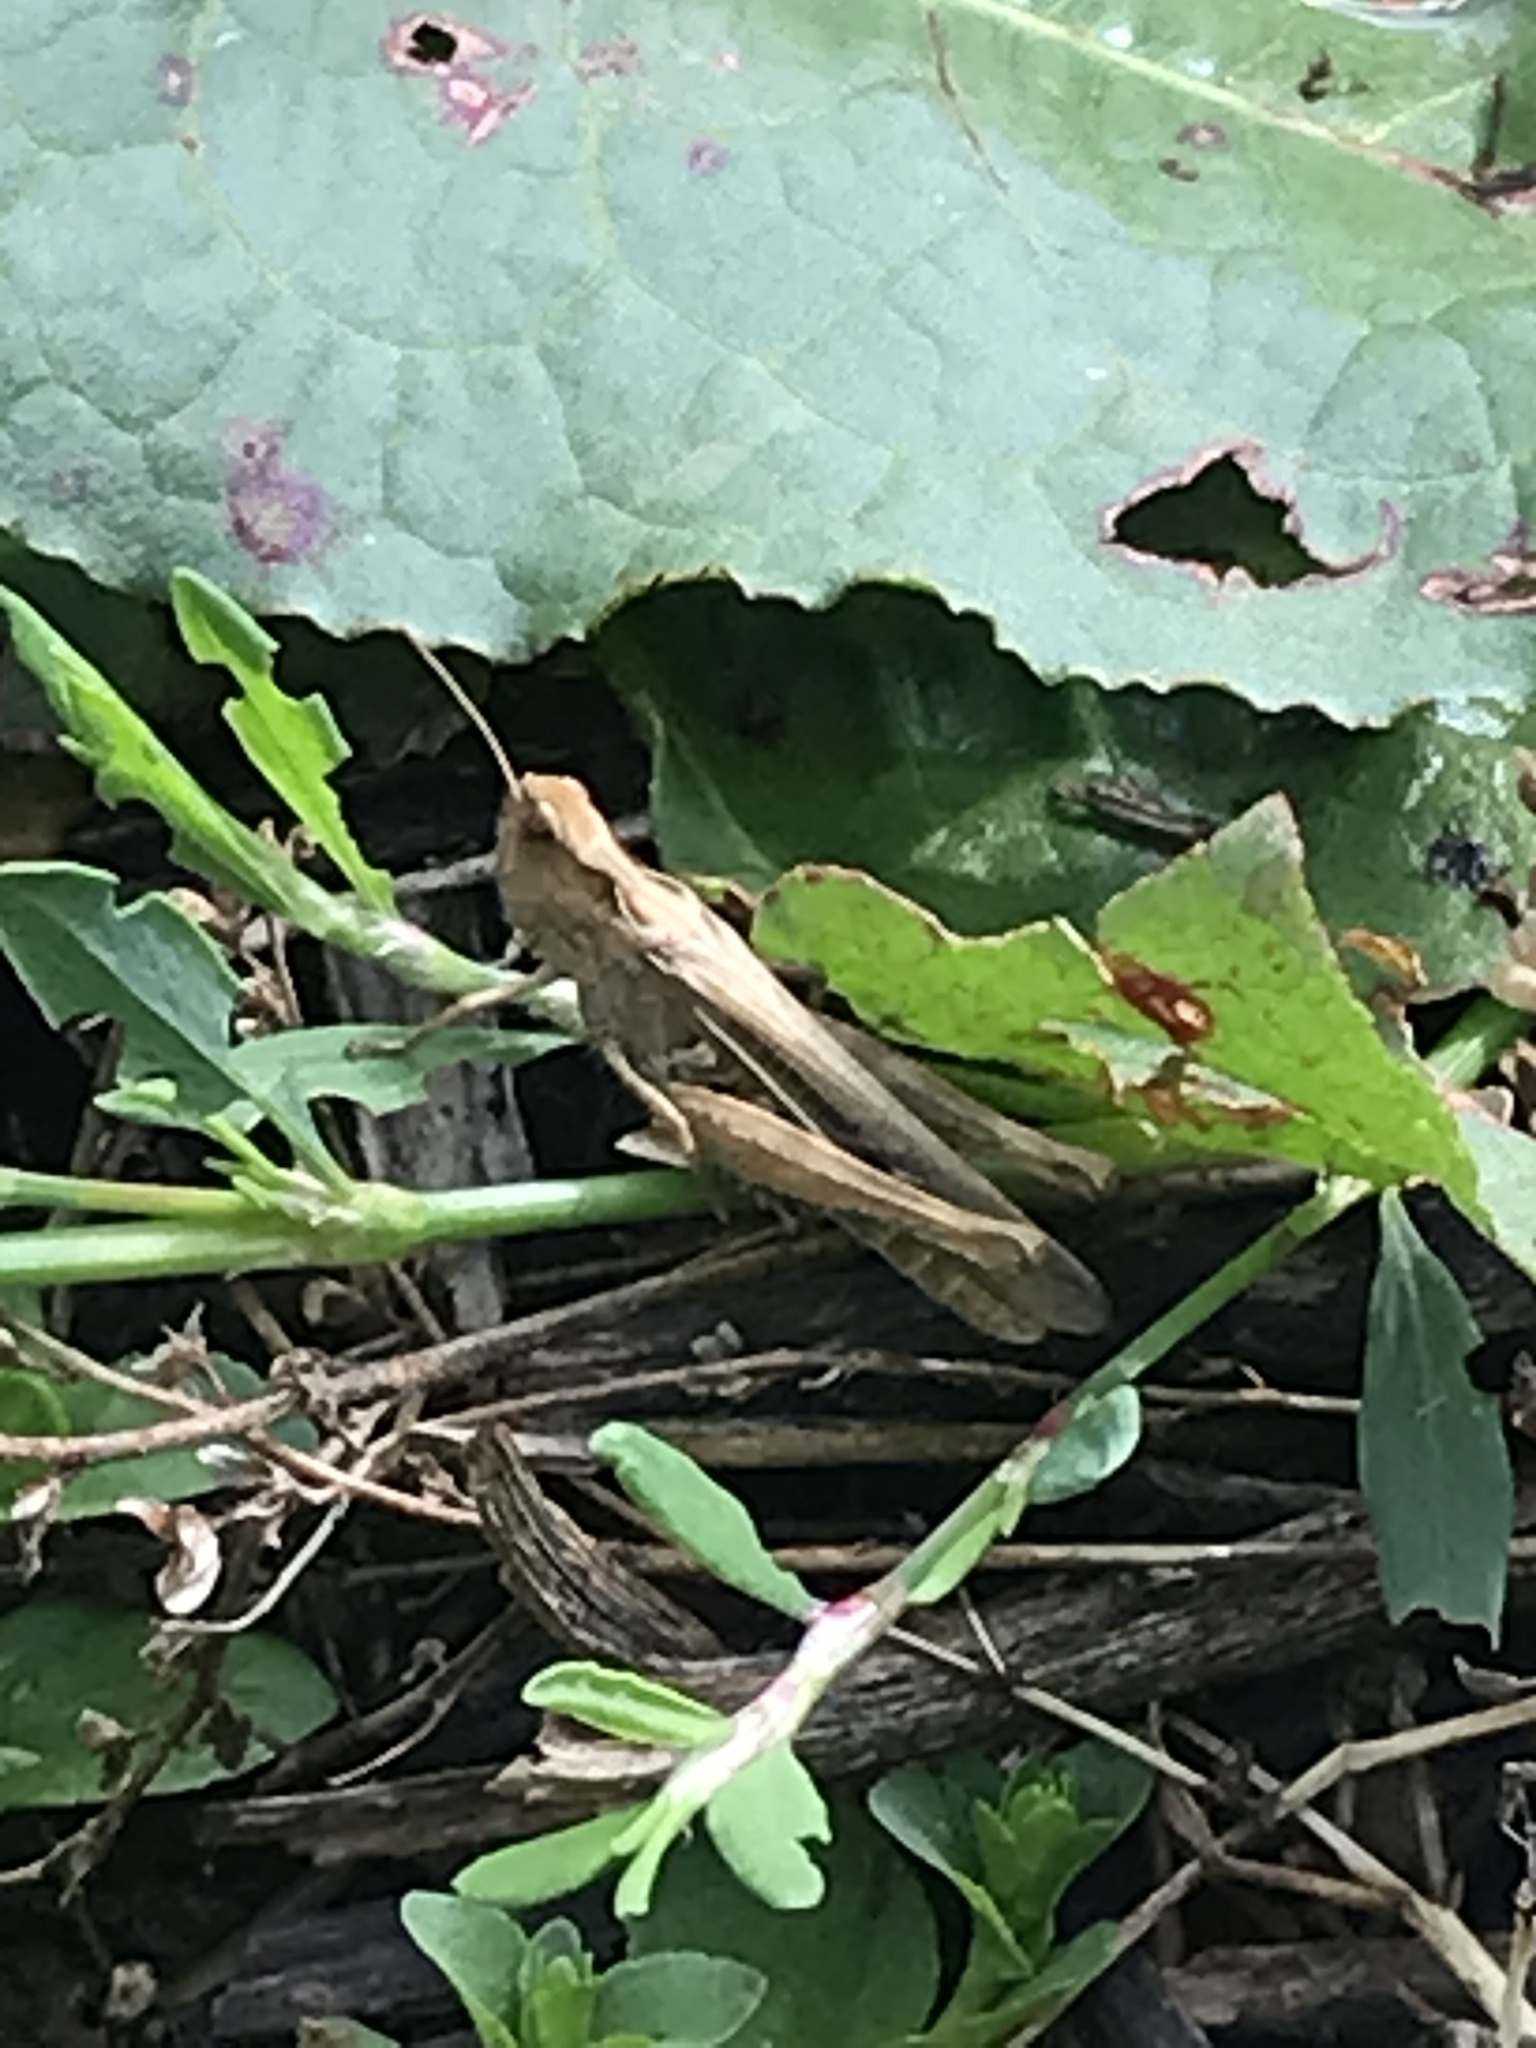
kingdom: Animalia
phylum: Arthropoda
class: Insecta
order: Orthoptera
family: Acrididae
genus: Chorthippus
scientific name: Chorthippus brunneus
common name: Field grasshopper
